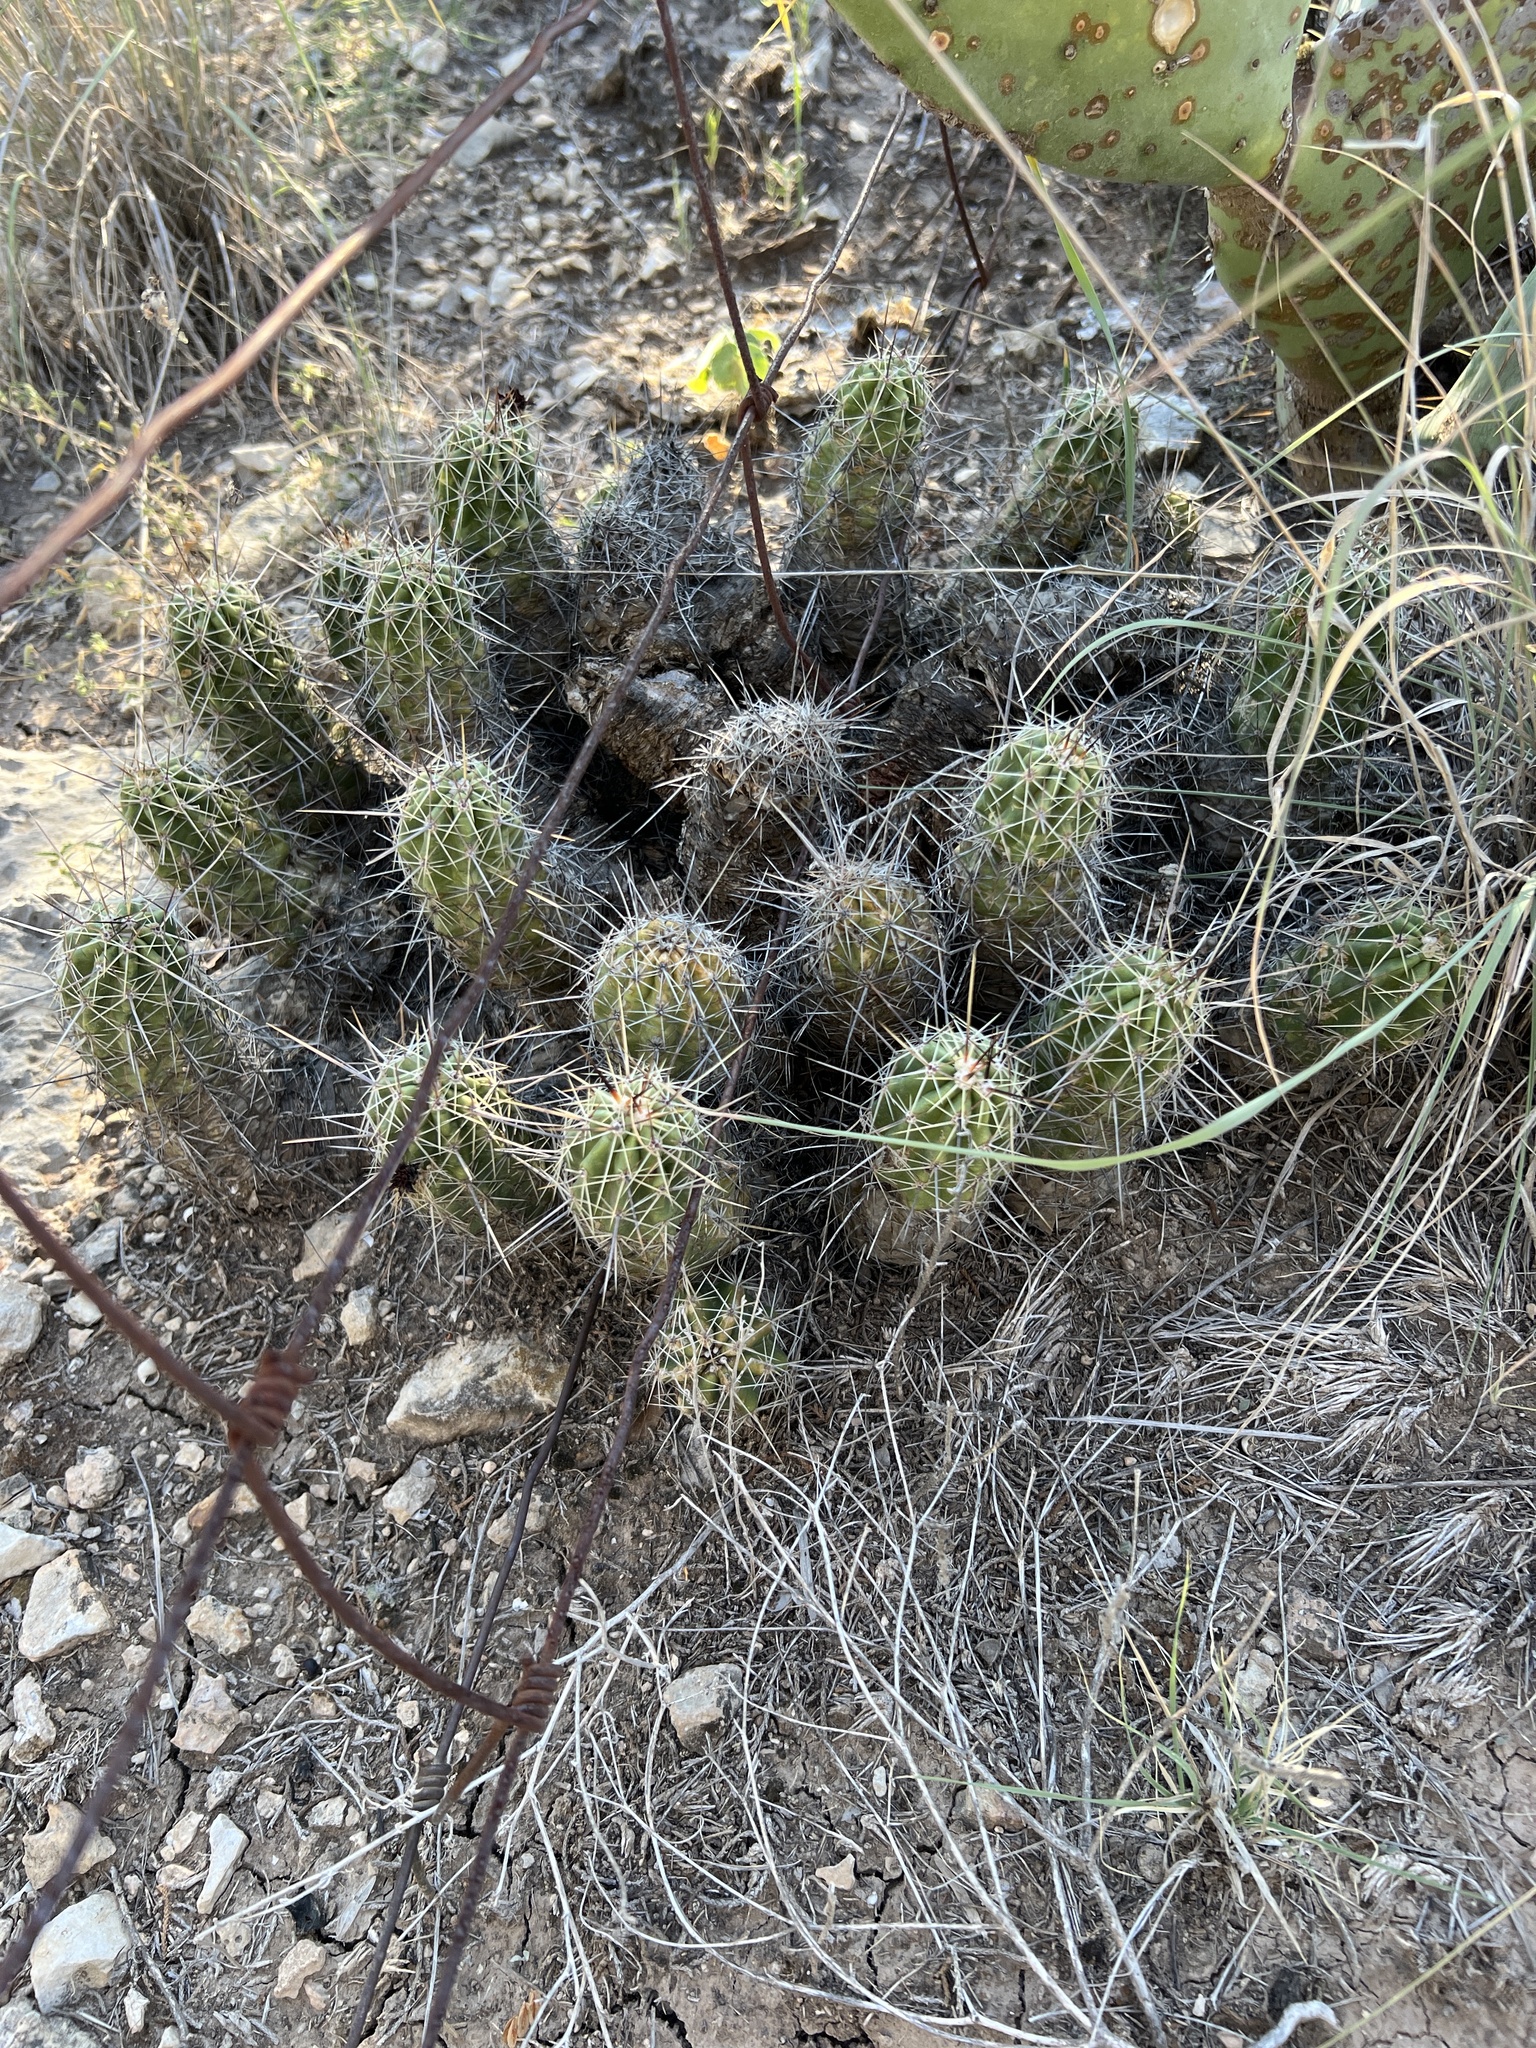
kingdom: Plantae
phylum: Tracheophyta
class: Magnoliopsida
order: Caryophyllales
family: Cactaceae
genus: Echinocereus
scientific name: Echinocereus enneacanthus
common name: Pitaya
